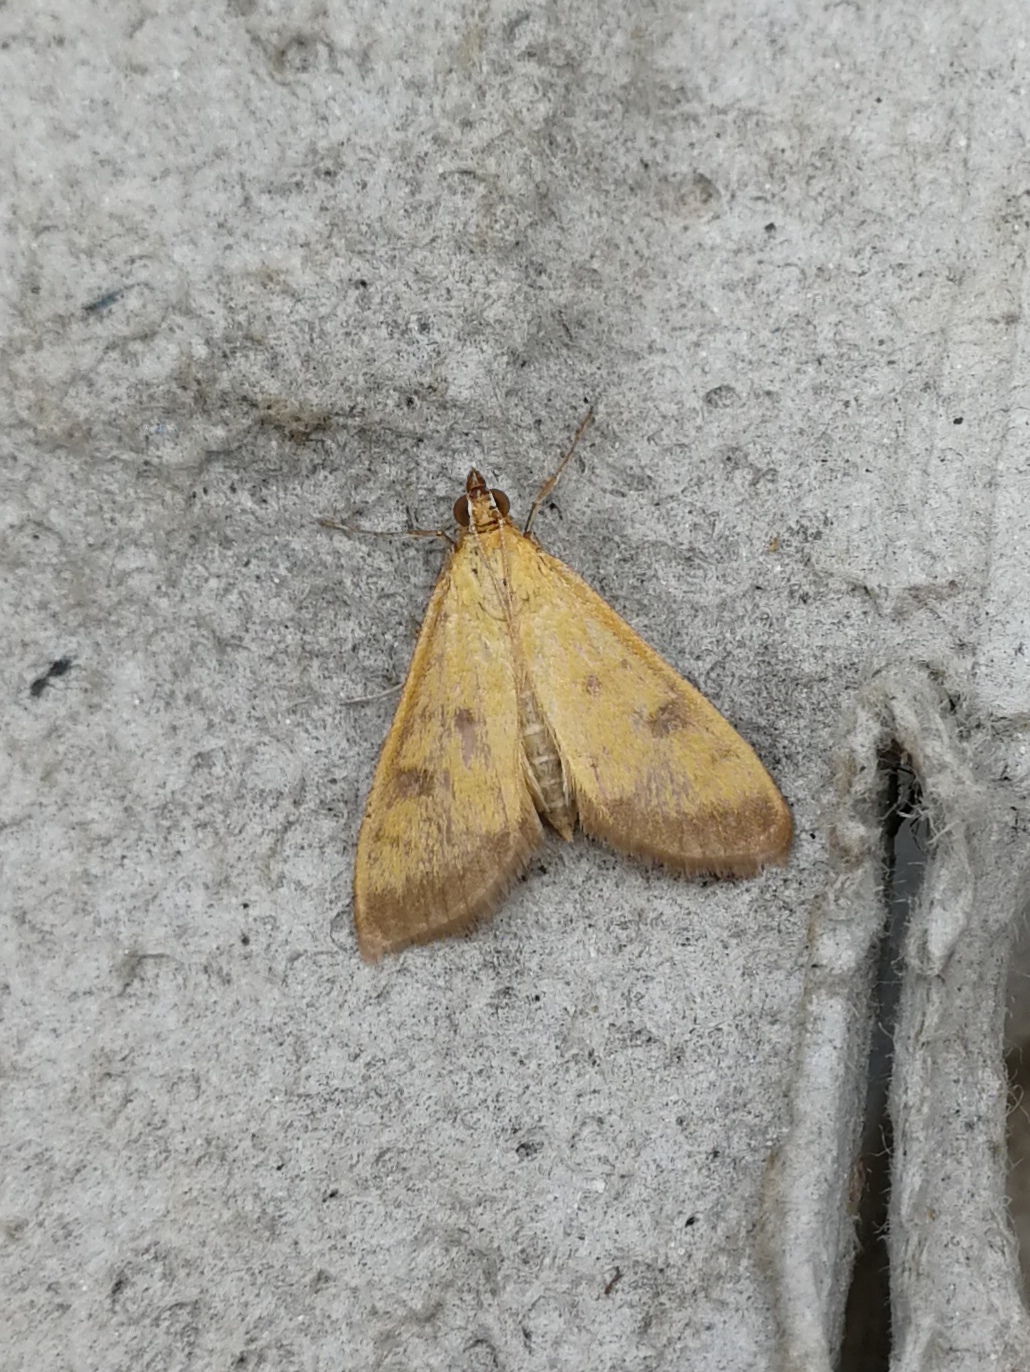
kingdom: Animalia
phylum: Arthropoda
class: Insecta
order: Lepidoptera
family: Crambidae
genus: Mecyna
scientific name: Mecyna trinalis
